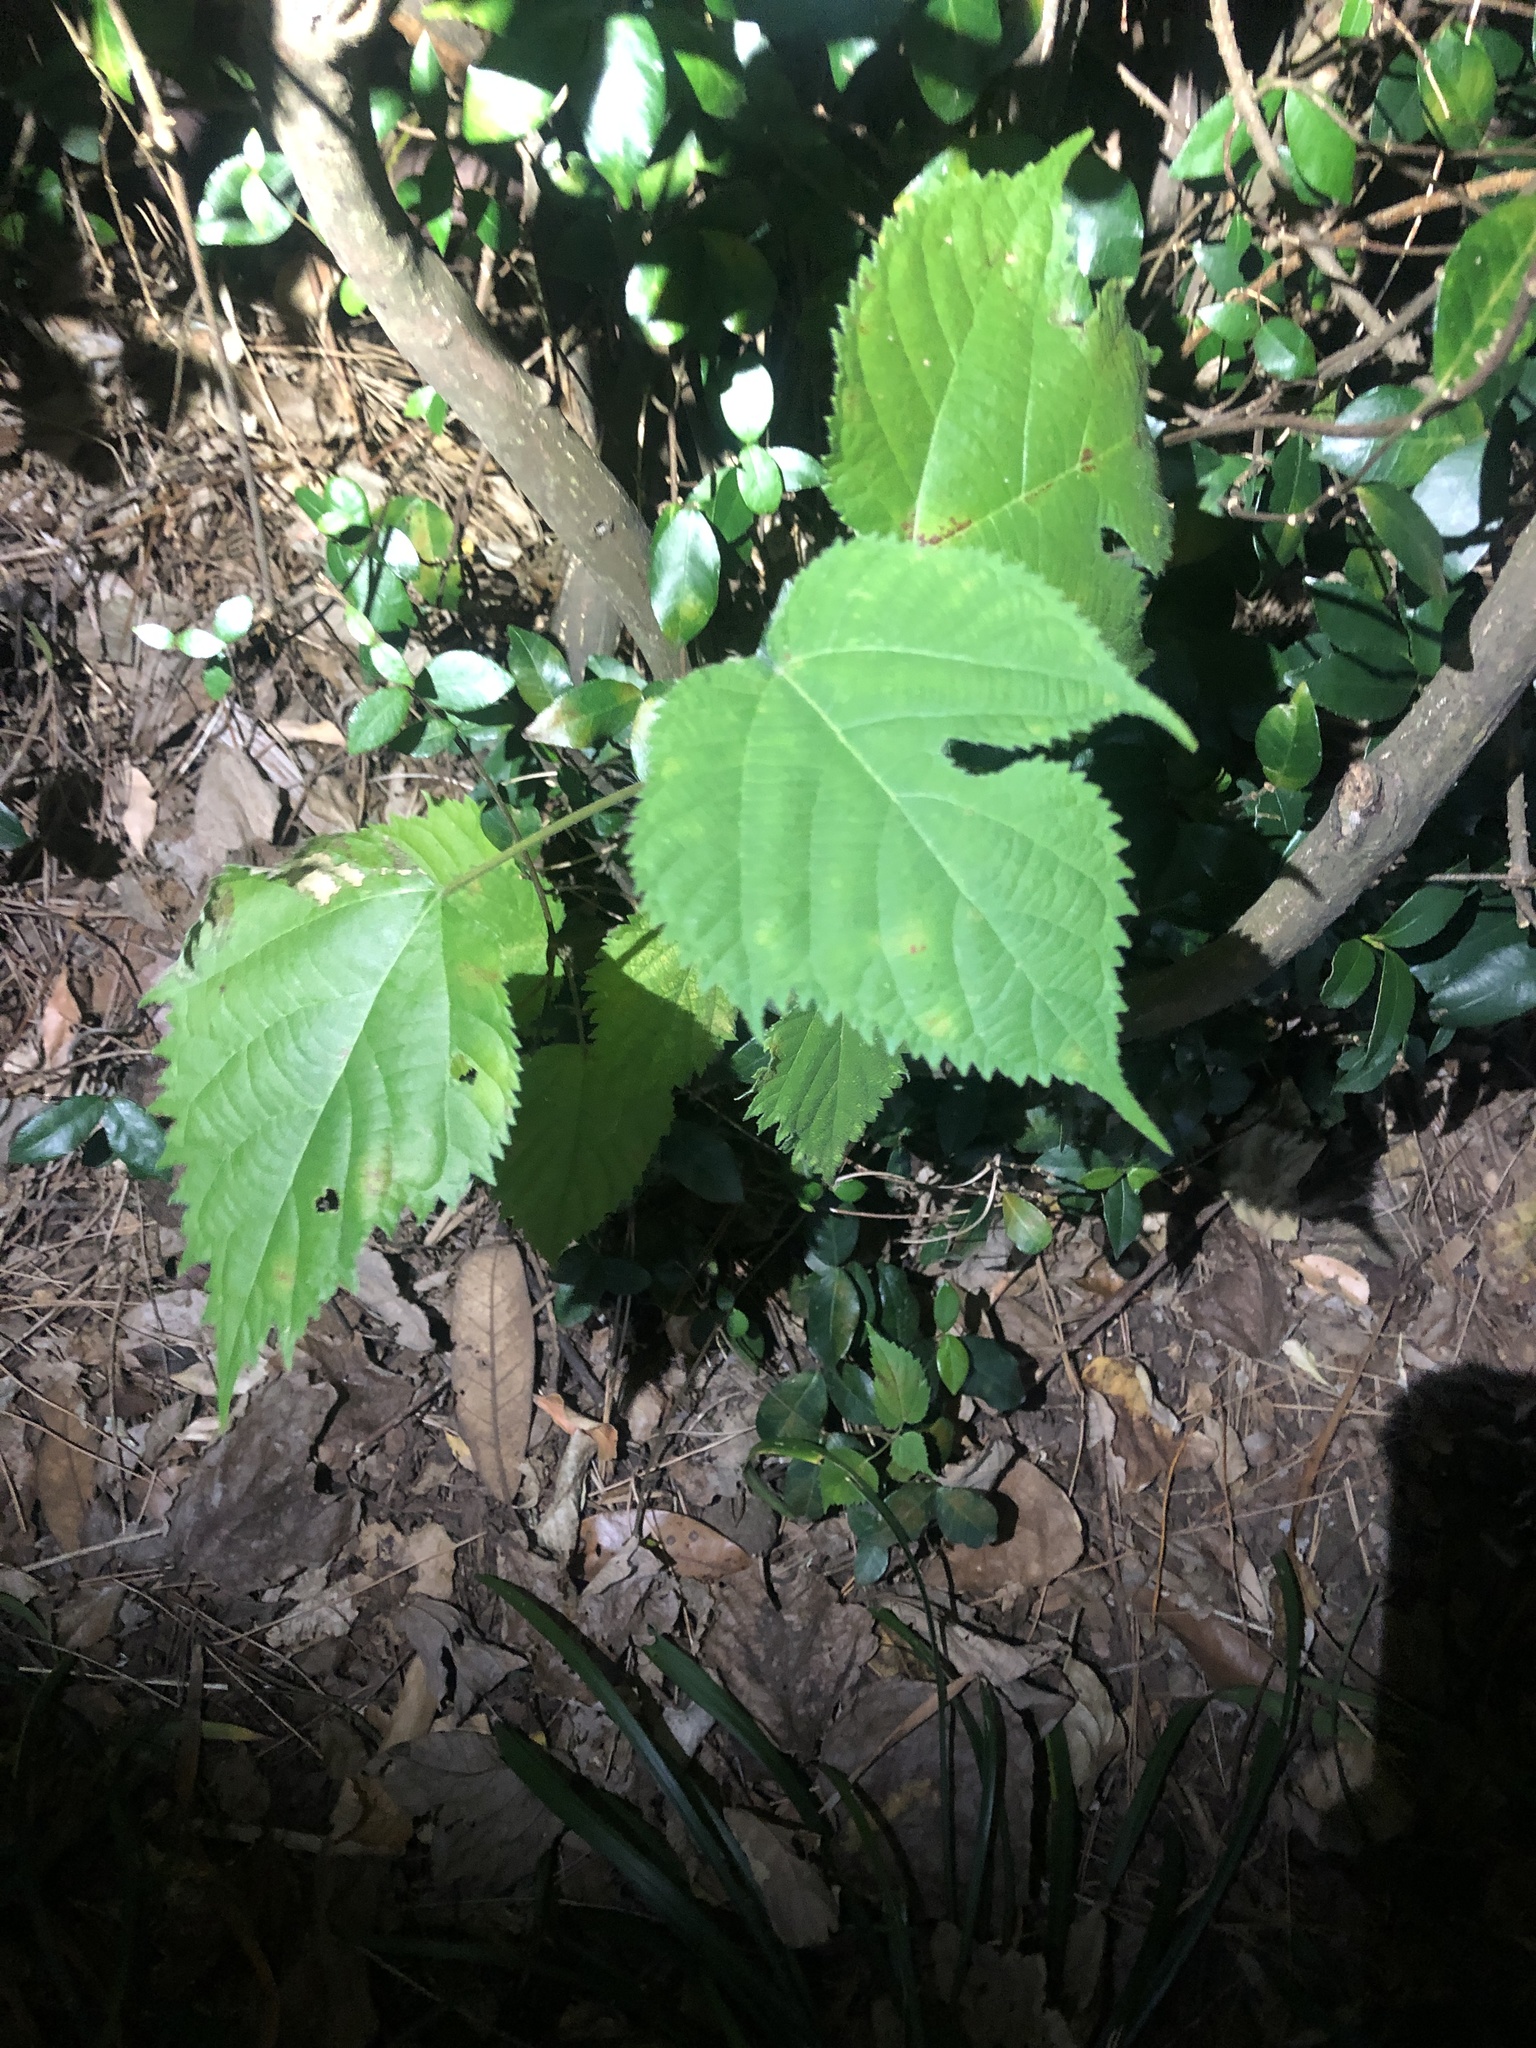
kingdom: Plantae
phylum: Tracheophyta
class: Magnoliopsida
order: Rosales
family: Moraceae
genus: Broussonetia
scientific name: Broussonetia papyrifera
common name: Paper mulberry
